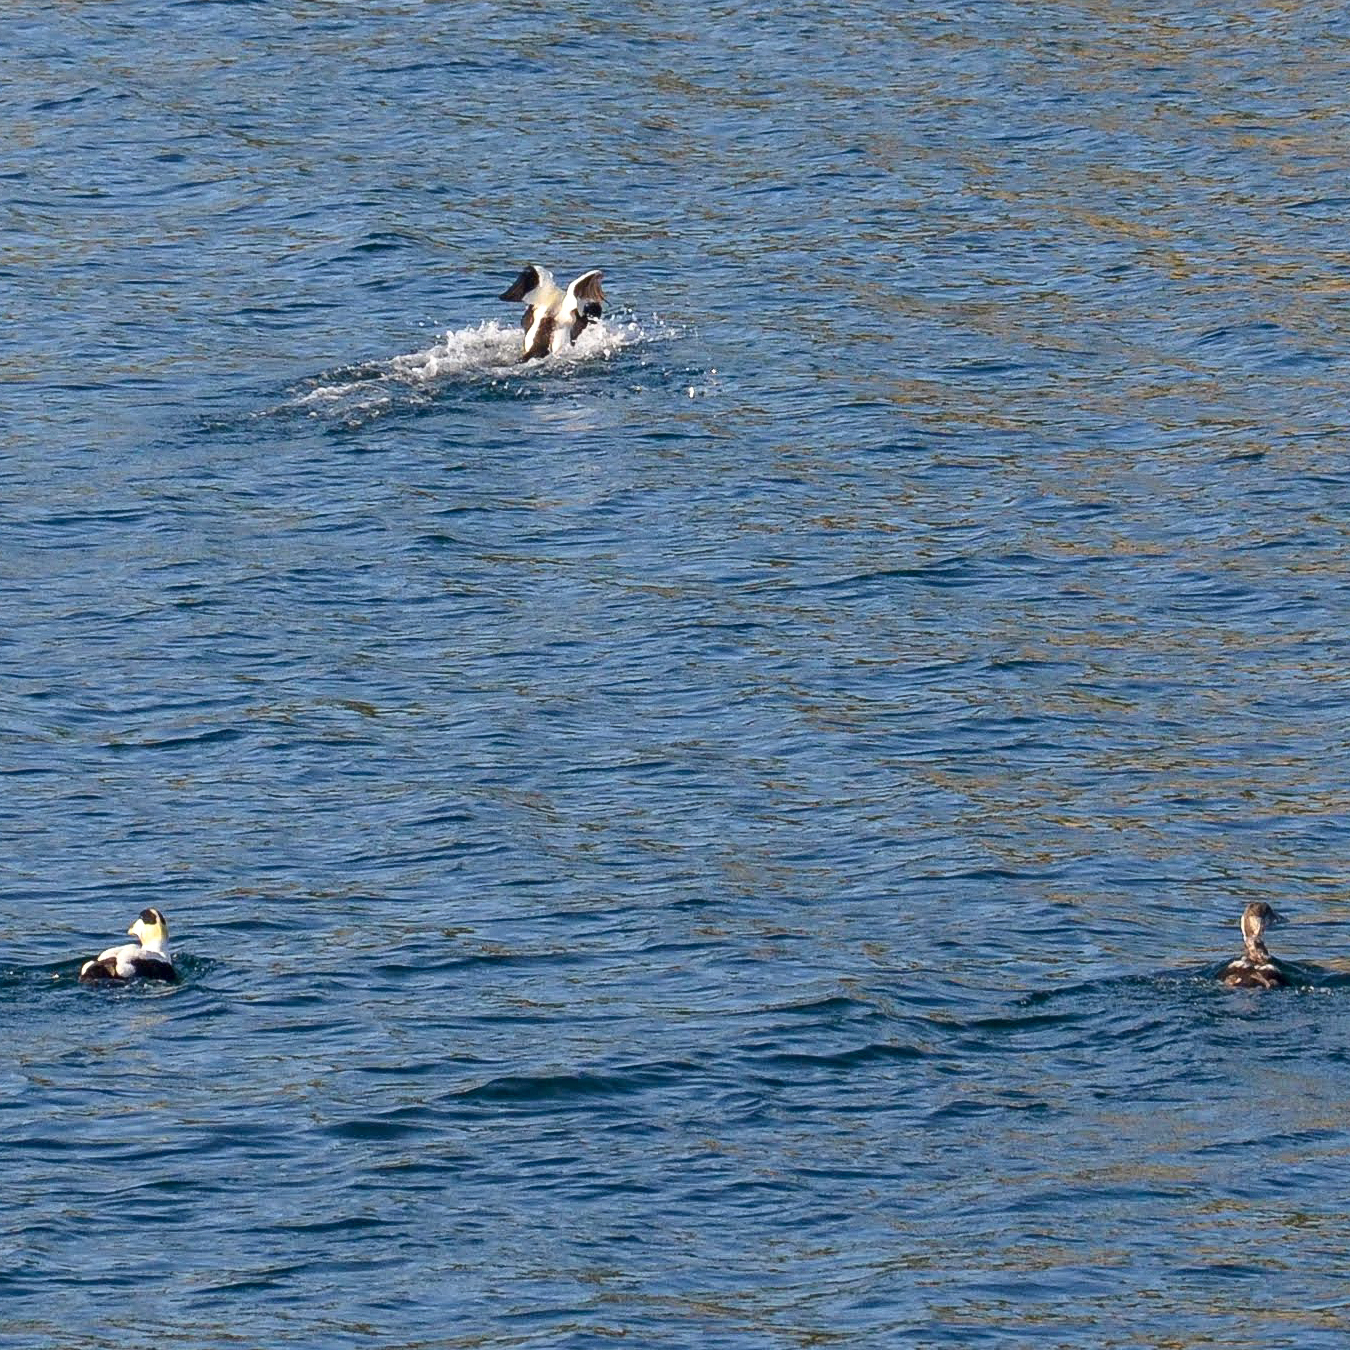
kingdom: Animalia
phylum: Chordata
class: Aves
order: Anseriformes
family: Anatidae
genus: Somateria
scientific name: Somateria mollissima
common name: Common eider
